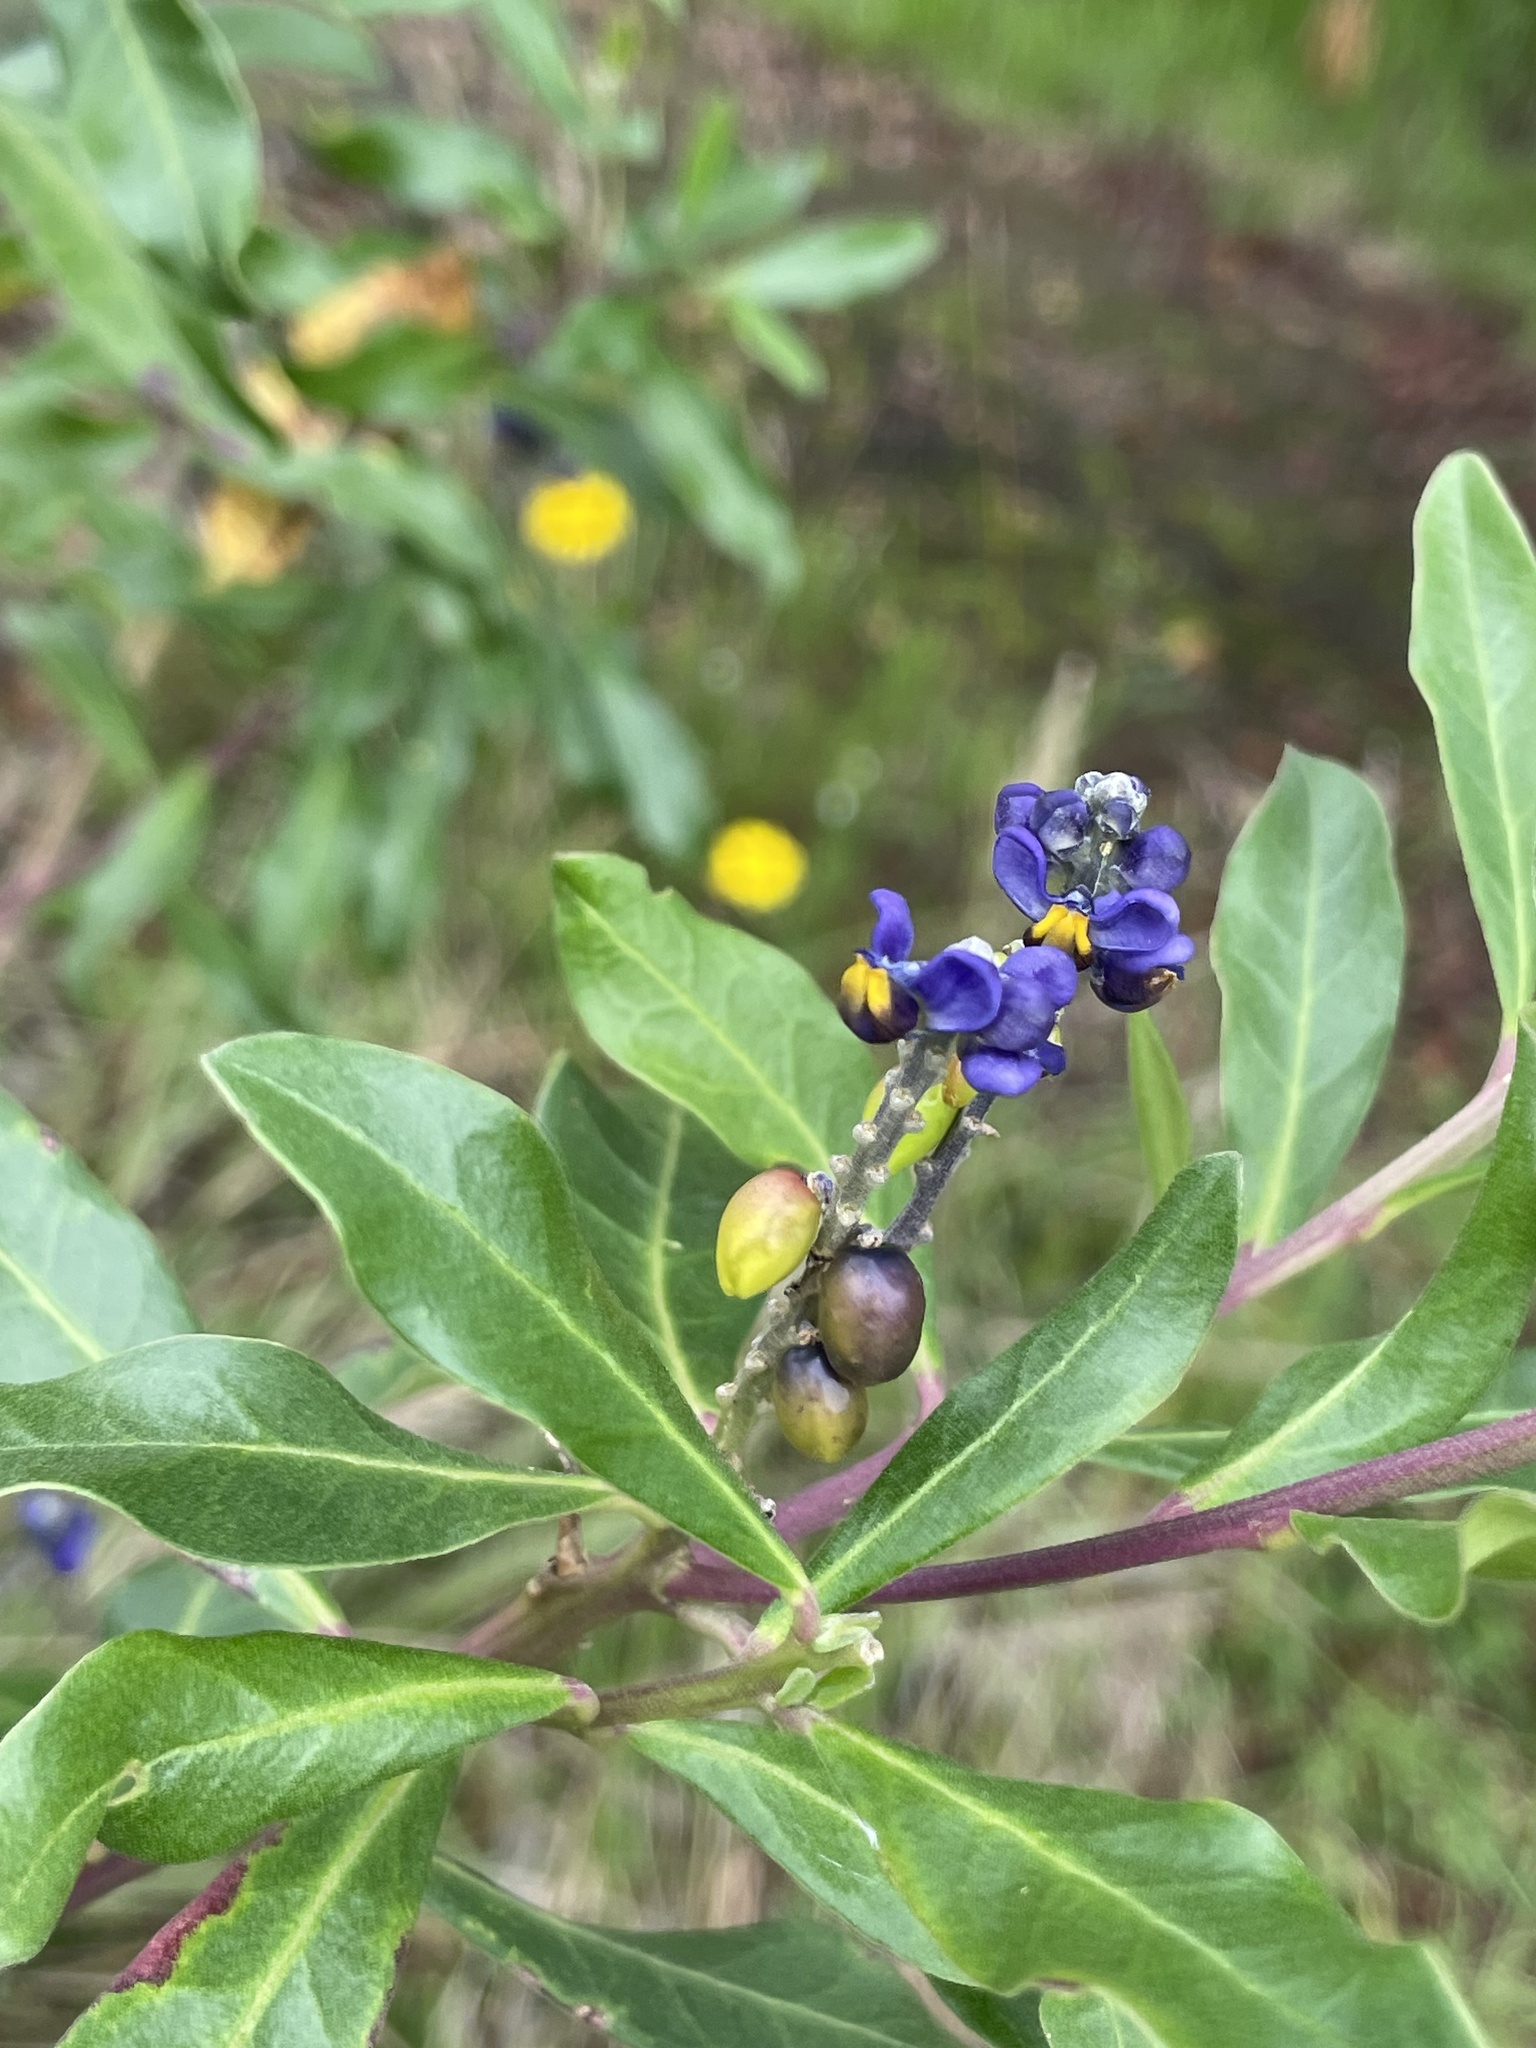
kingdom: Plantae
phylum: Tracheophyta
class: Magnoliopsida
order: Fabales
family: Polygalaceae
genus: Monnina
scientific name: Monnina crassifolia
